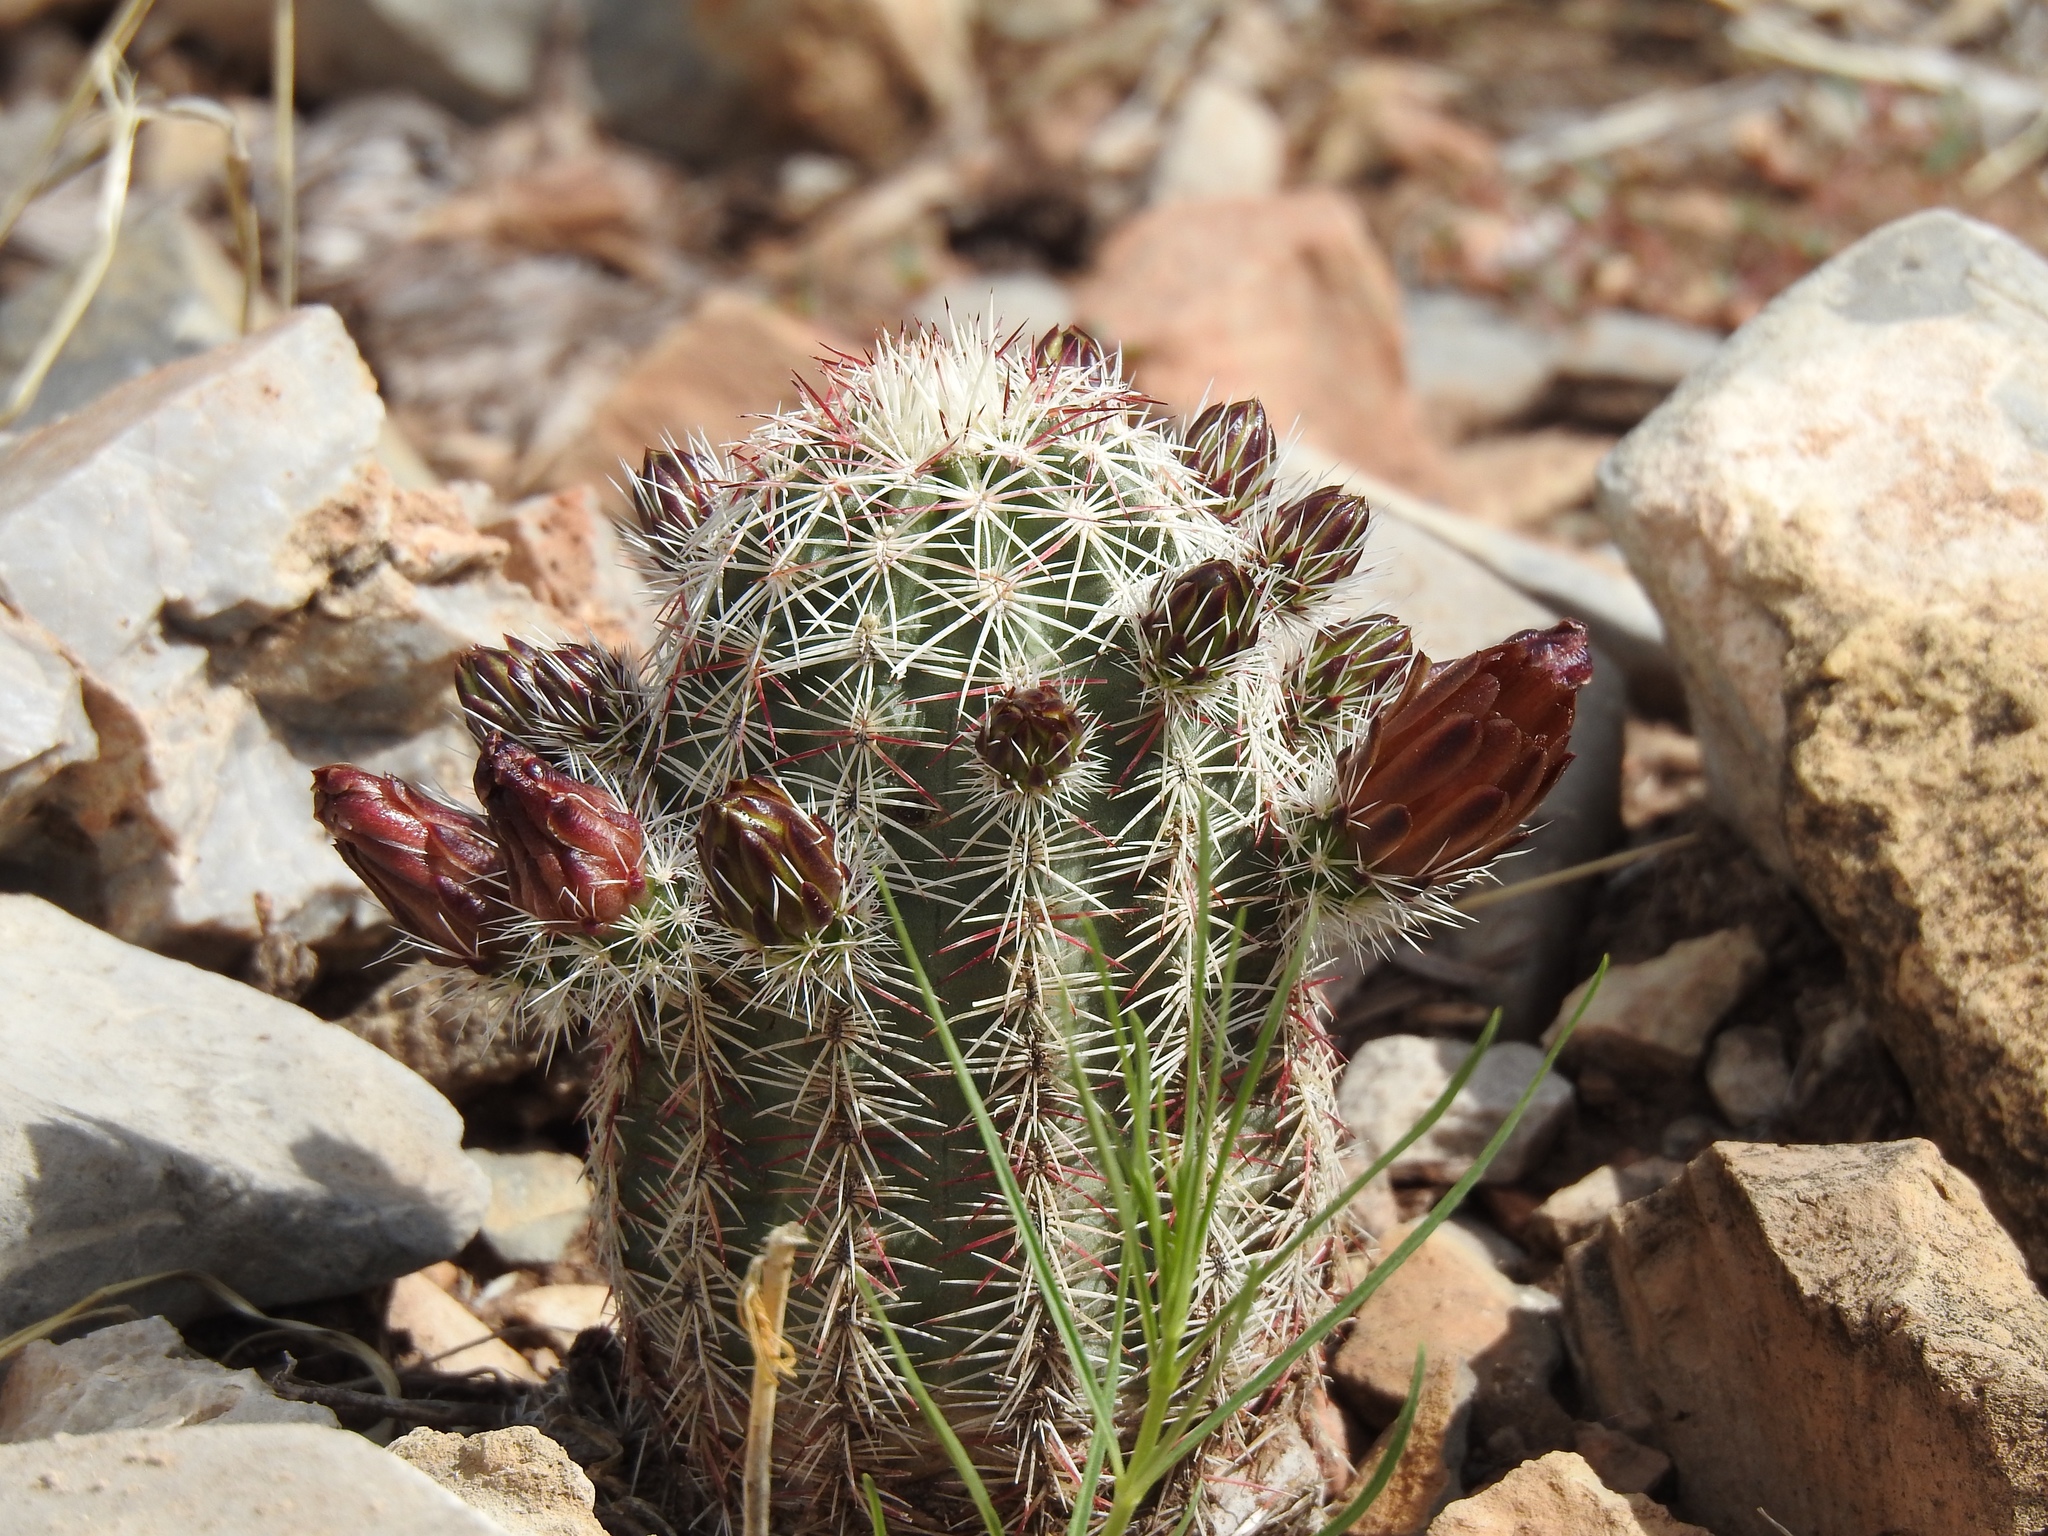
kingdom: Plantae
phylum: Tracheophyta
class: Magnoliopsida
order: Caryophyllales
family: Cactaceae
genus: Echinocereus
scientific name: Echinocereus viridiflorus
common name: Nylon hedgehog cactus
